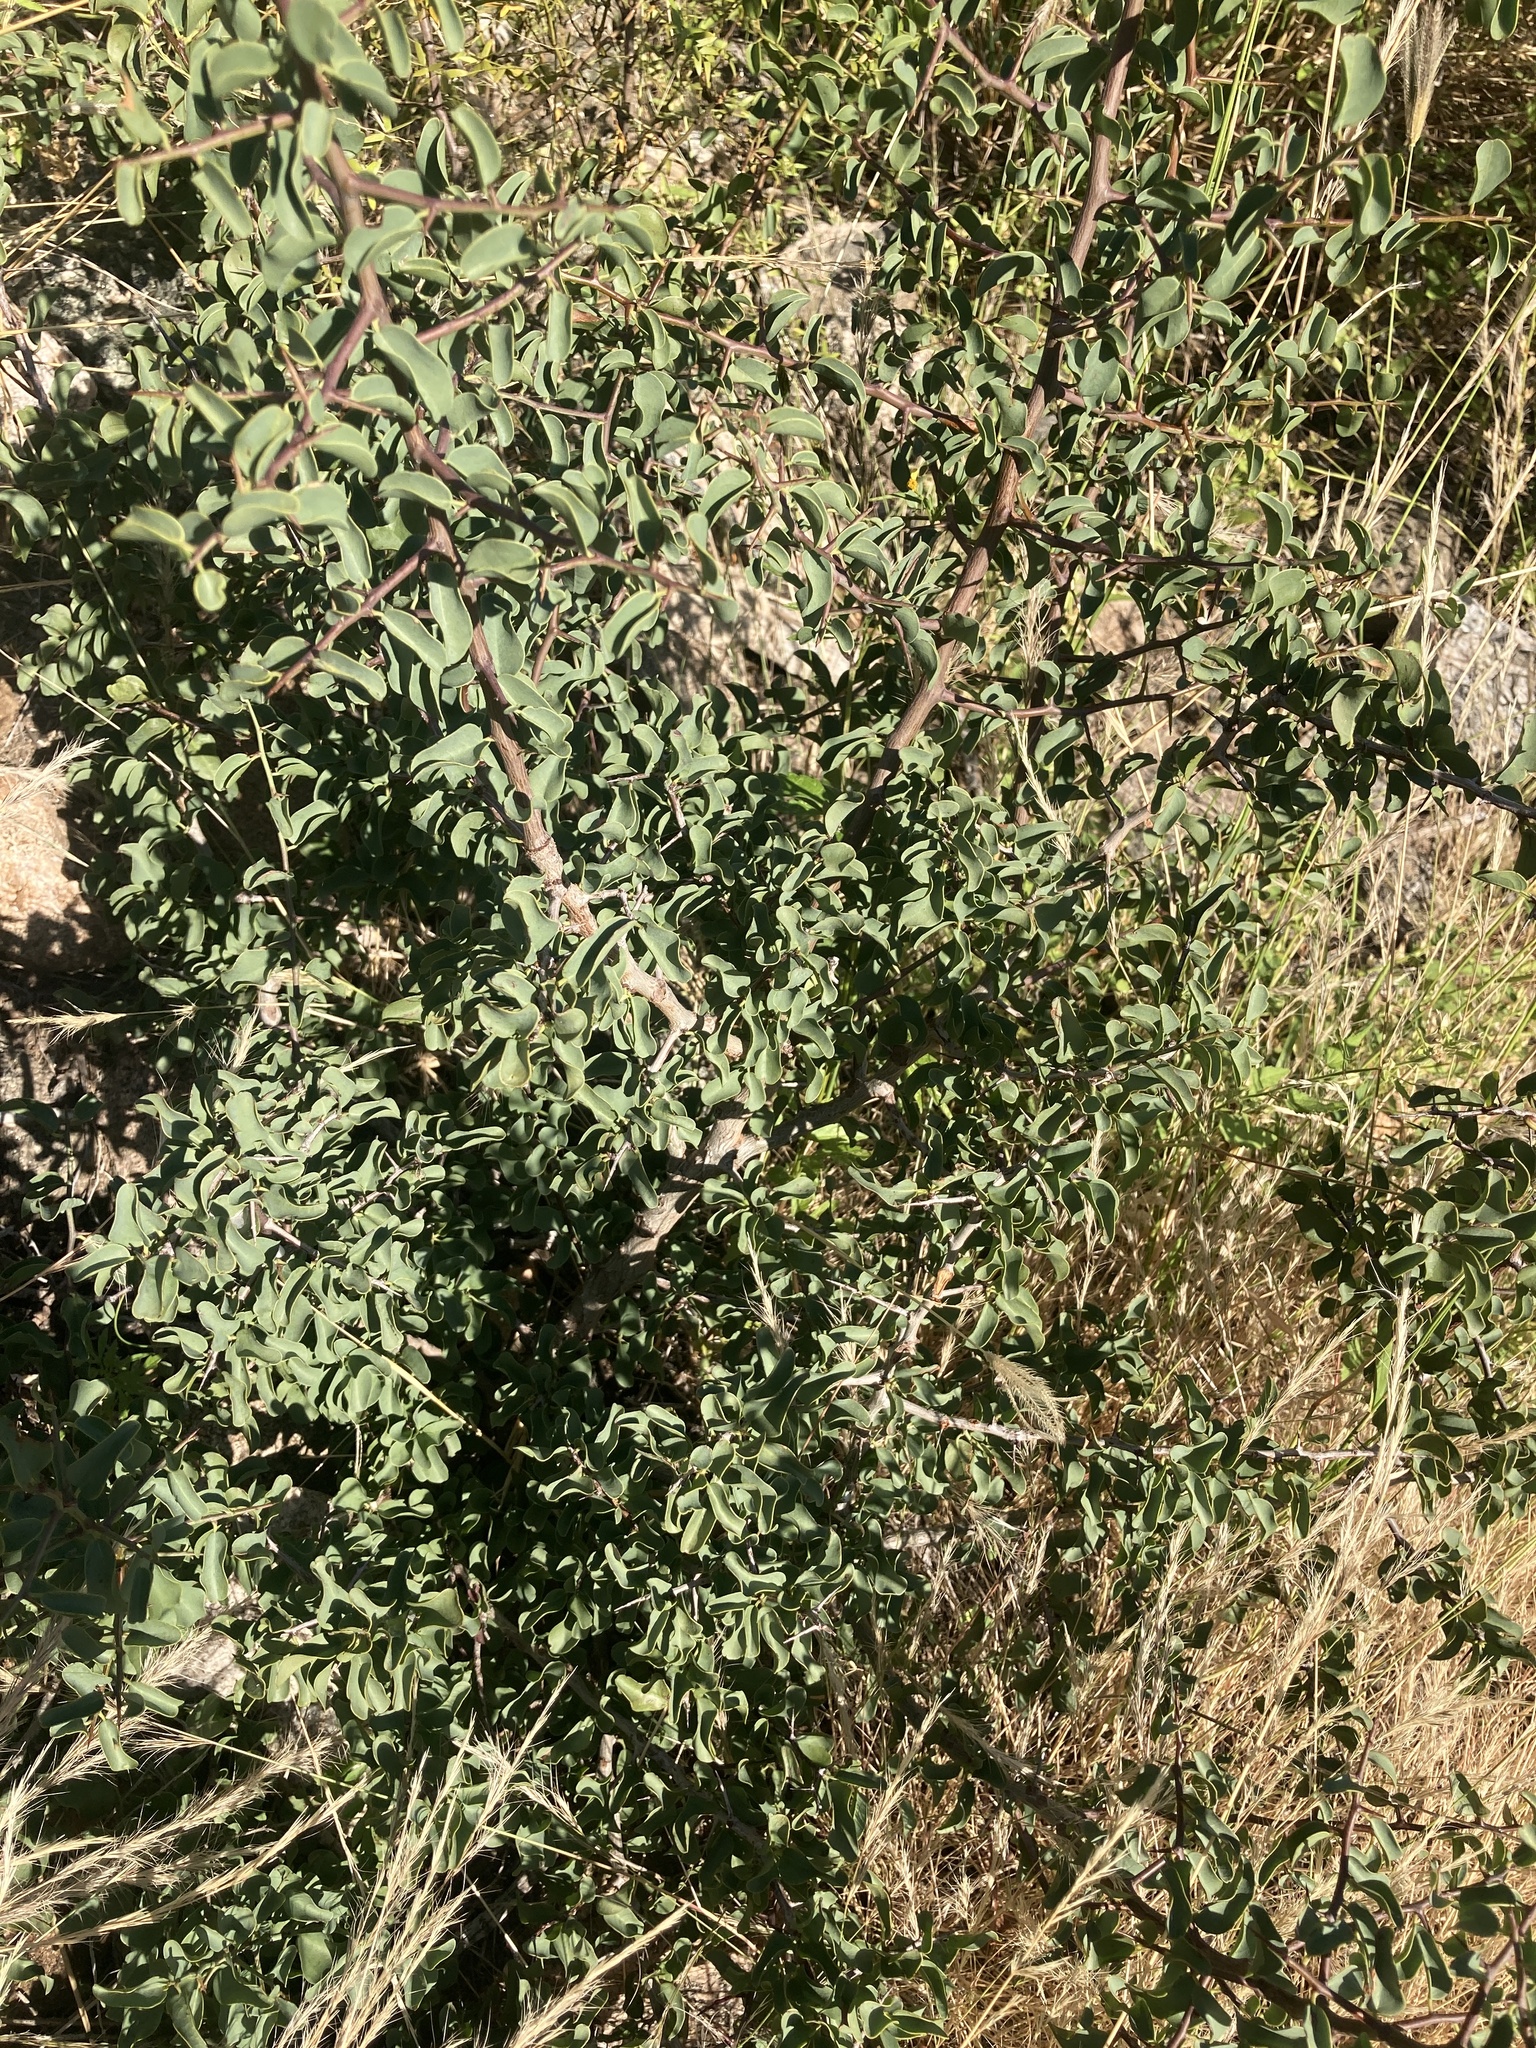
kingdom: Plantae
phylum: Tracheophyta
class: Magnoliopsida
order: Santalales
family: Ximeniaceae
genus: Ximenia
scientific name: Ximenia americana
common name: Tallowwood
